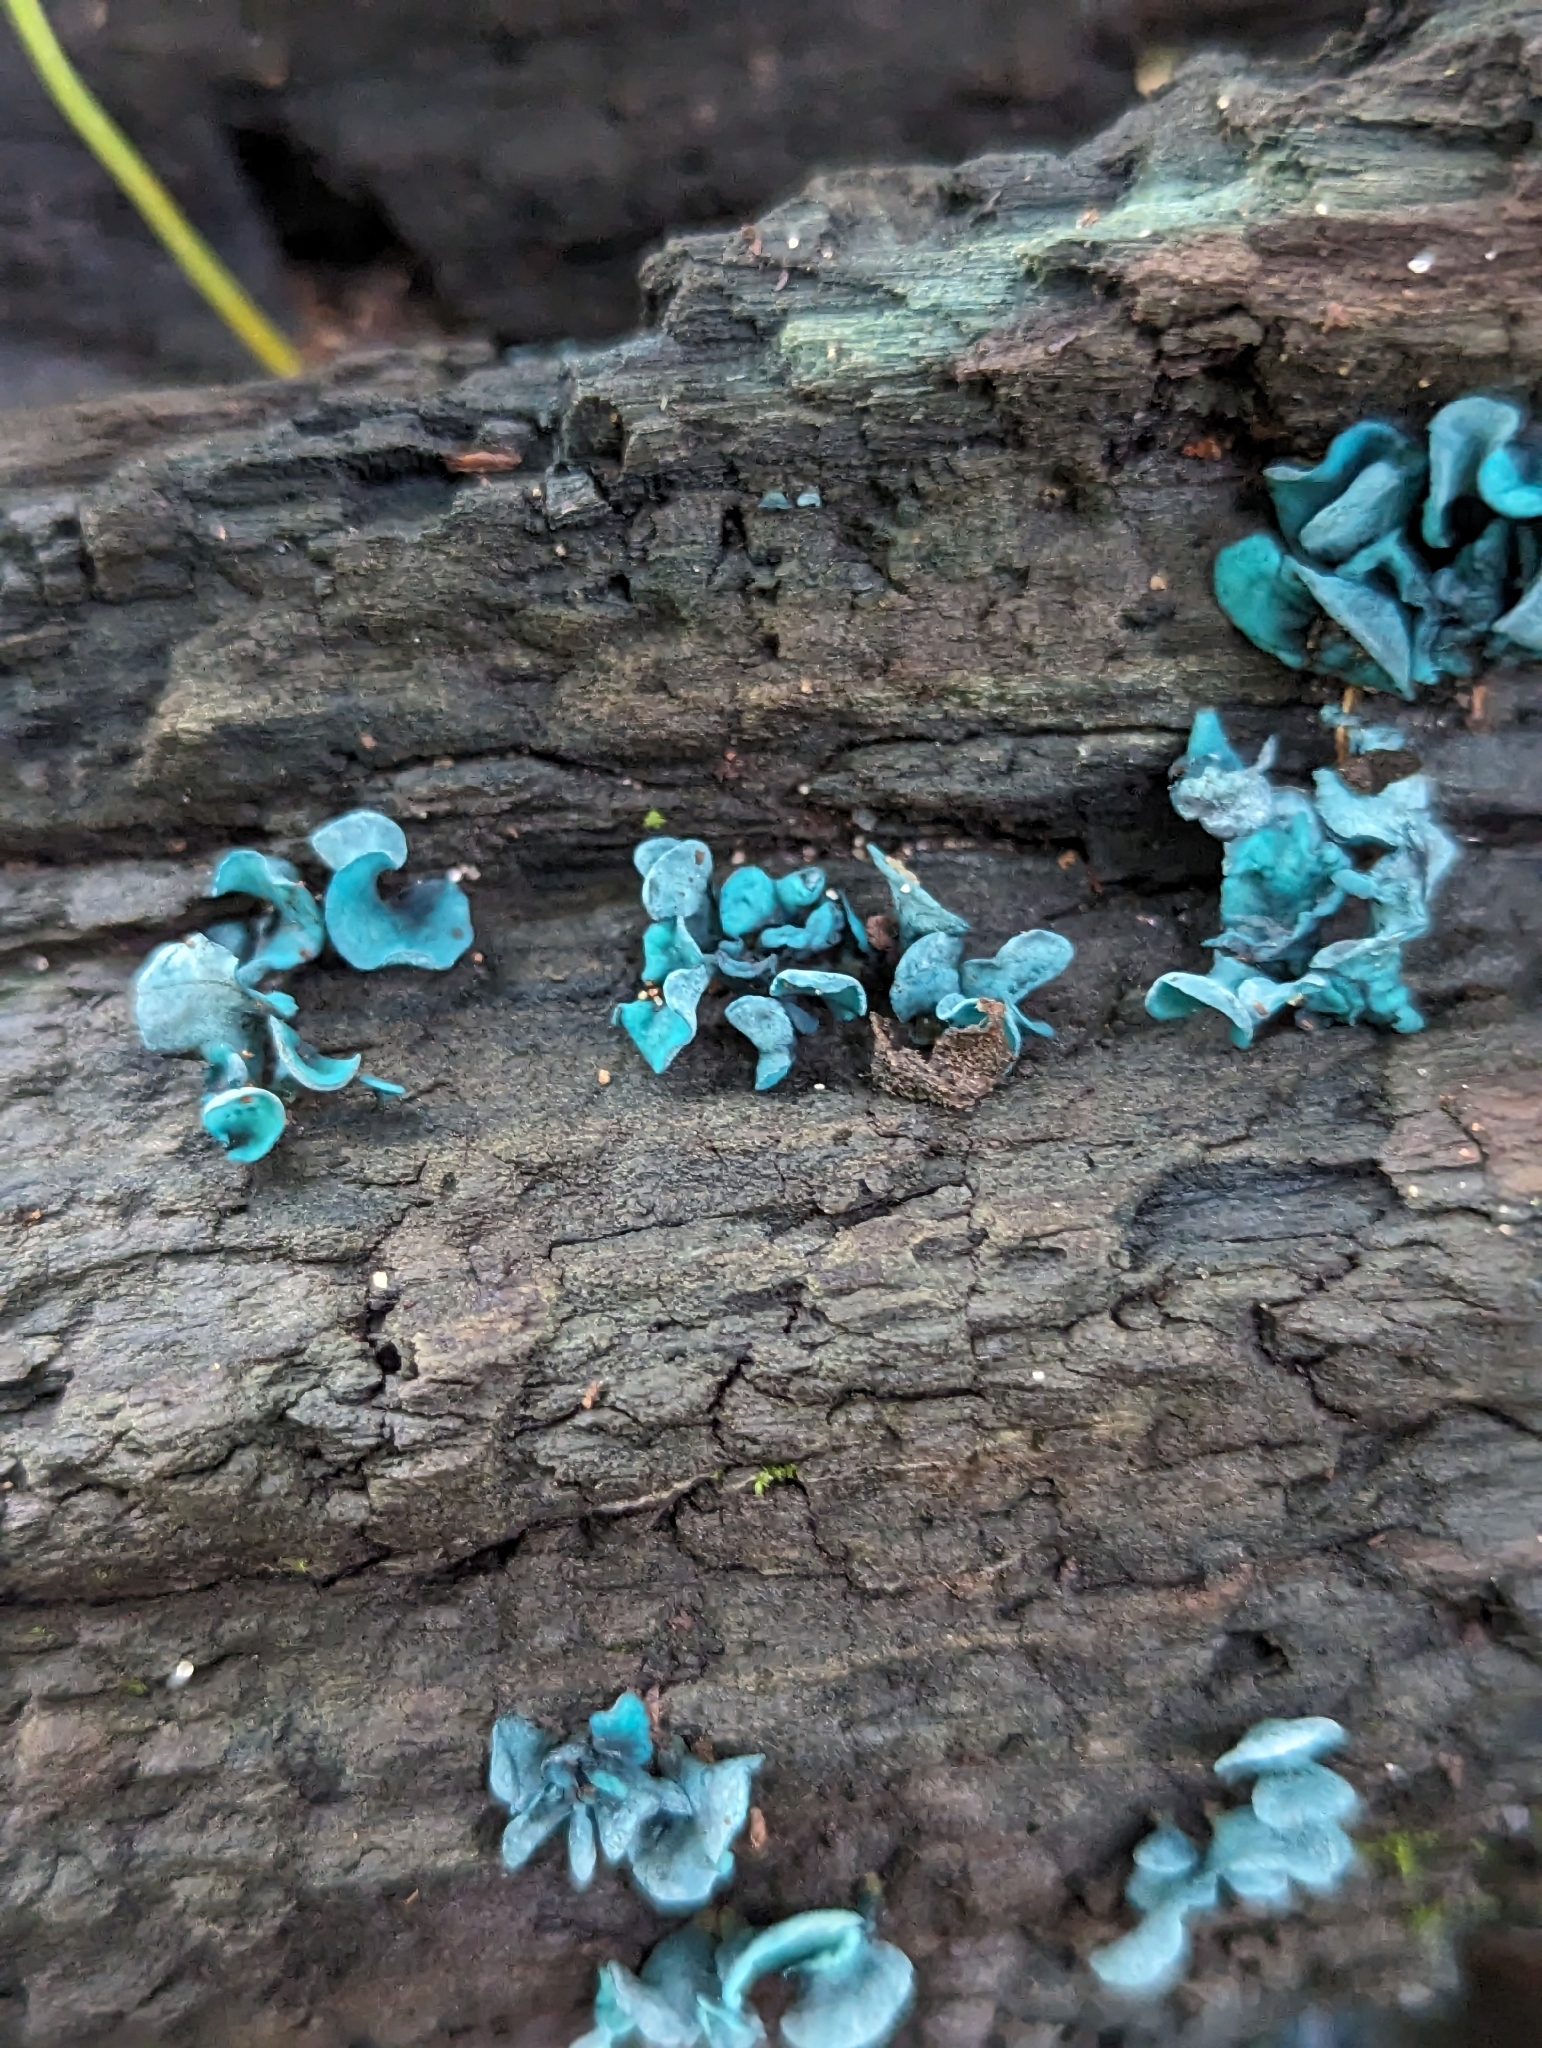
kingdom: Fungi
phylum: Ascomycota
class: Leotiomycetes
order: Helotiales
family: Chlorociboriaceae
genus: Chlorociboria
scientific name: Chlorociboria aeruginascens
